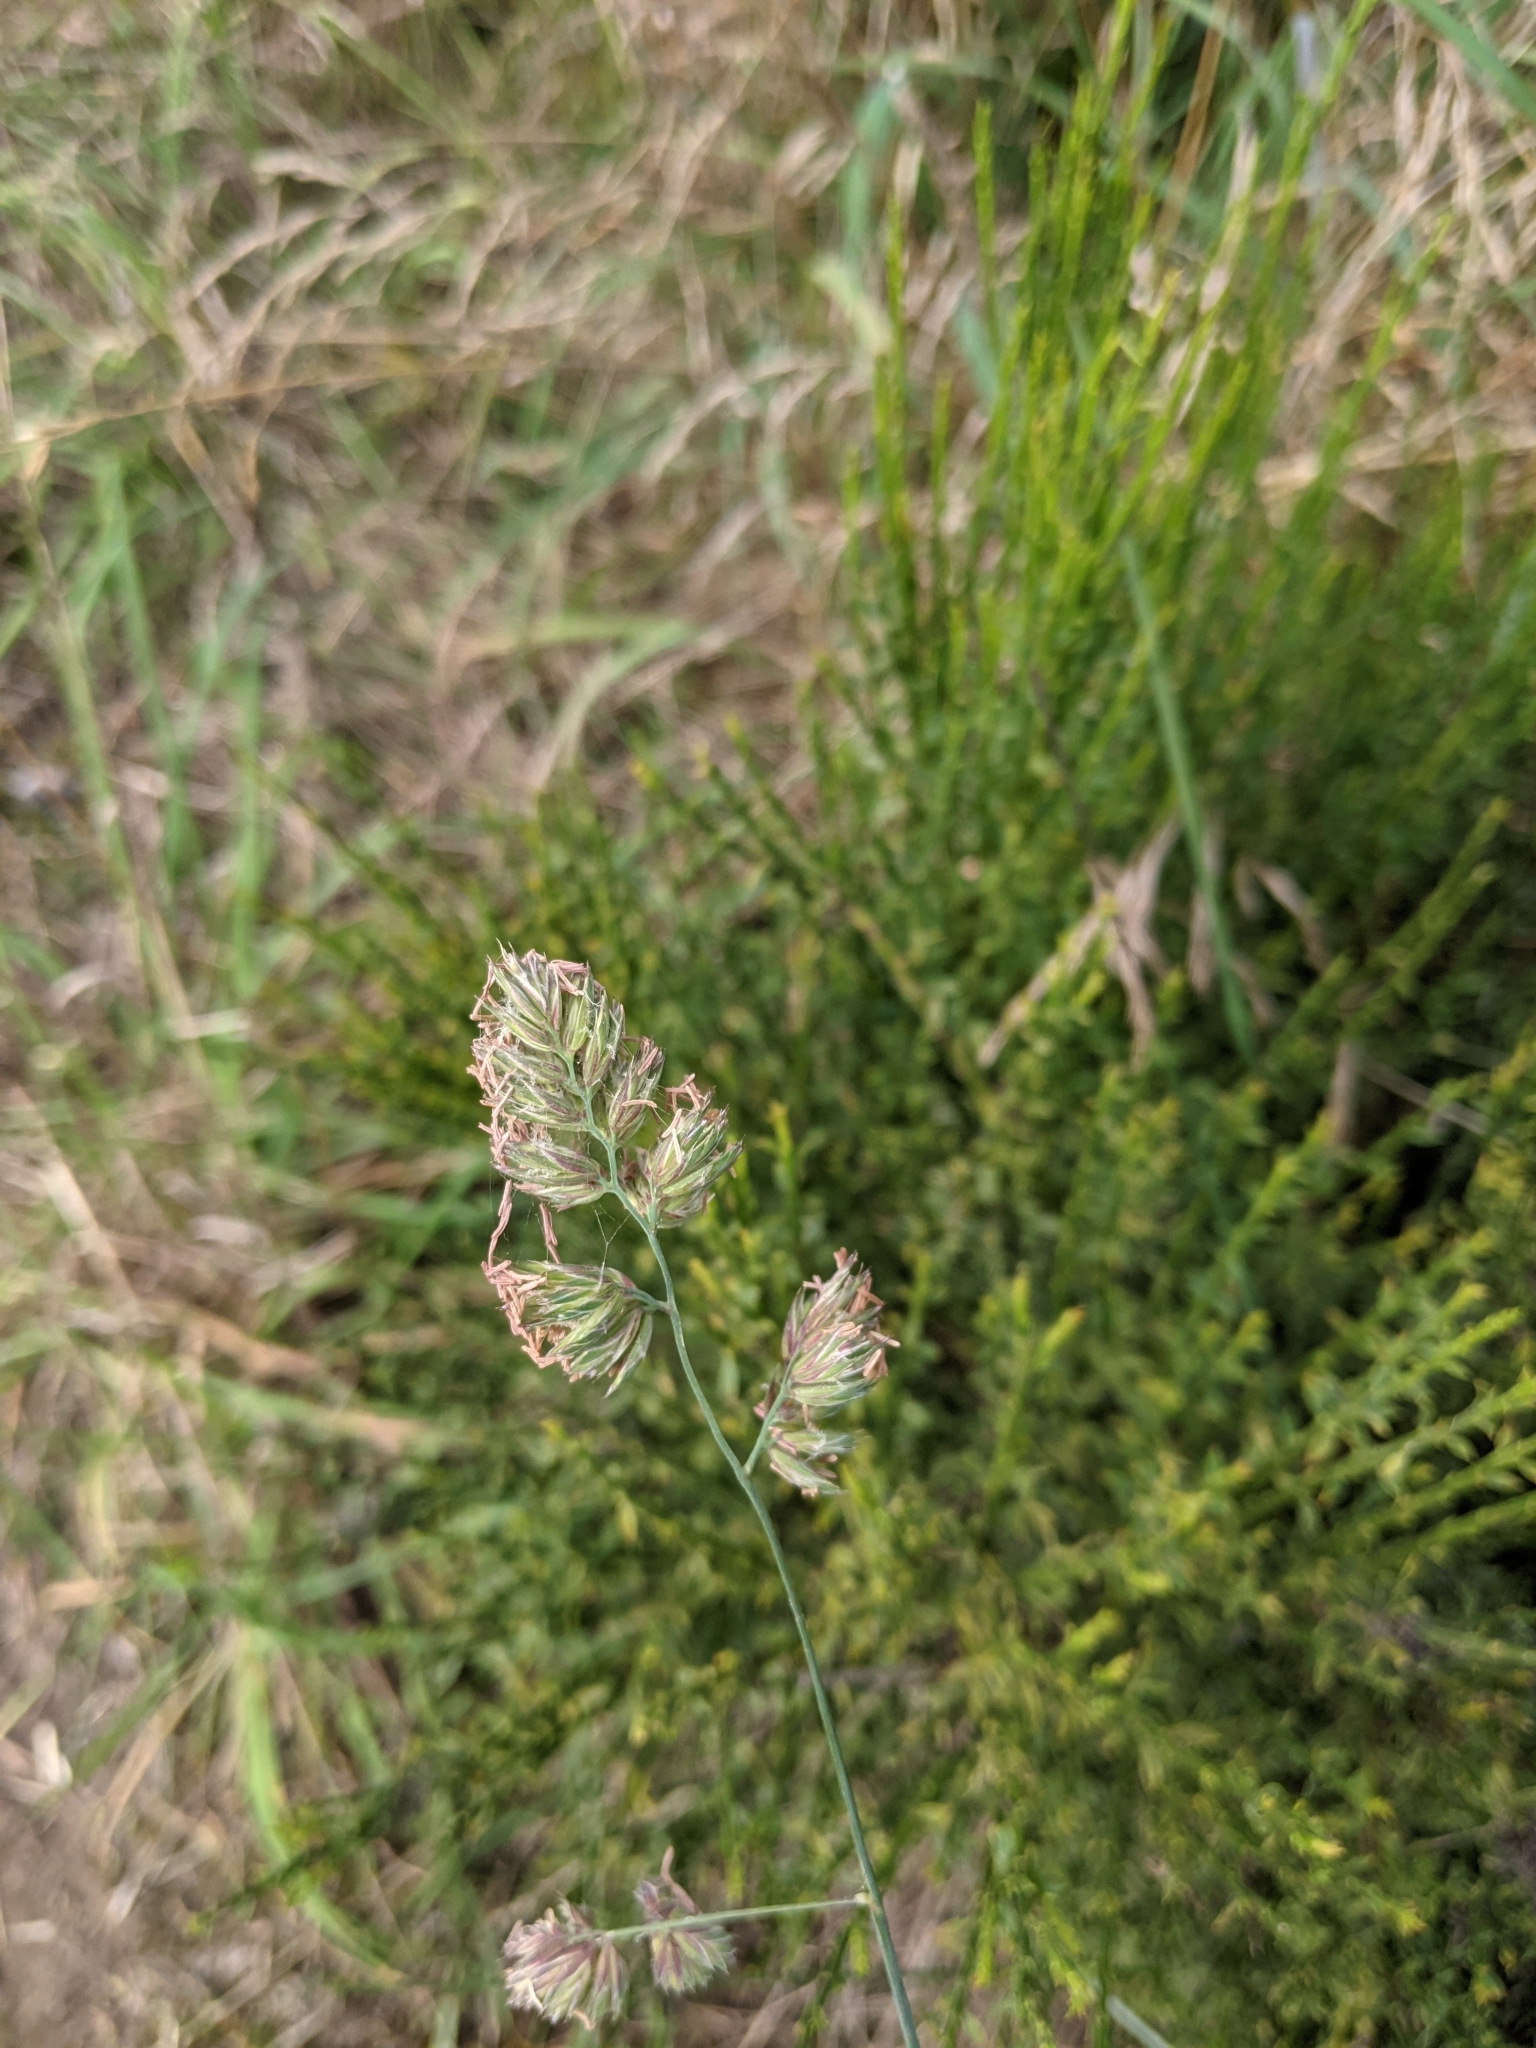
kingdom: Plantae
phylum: Tracheophyta
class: Liliopsida
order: Poales
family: Poaceae
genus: Dactylis
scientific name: Dactylis glomerata
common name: Orchardgrass
